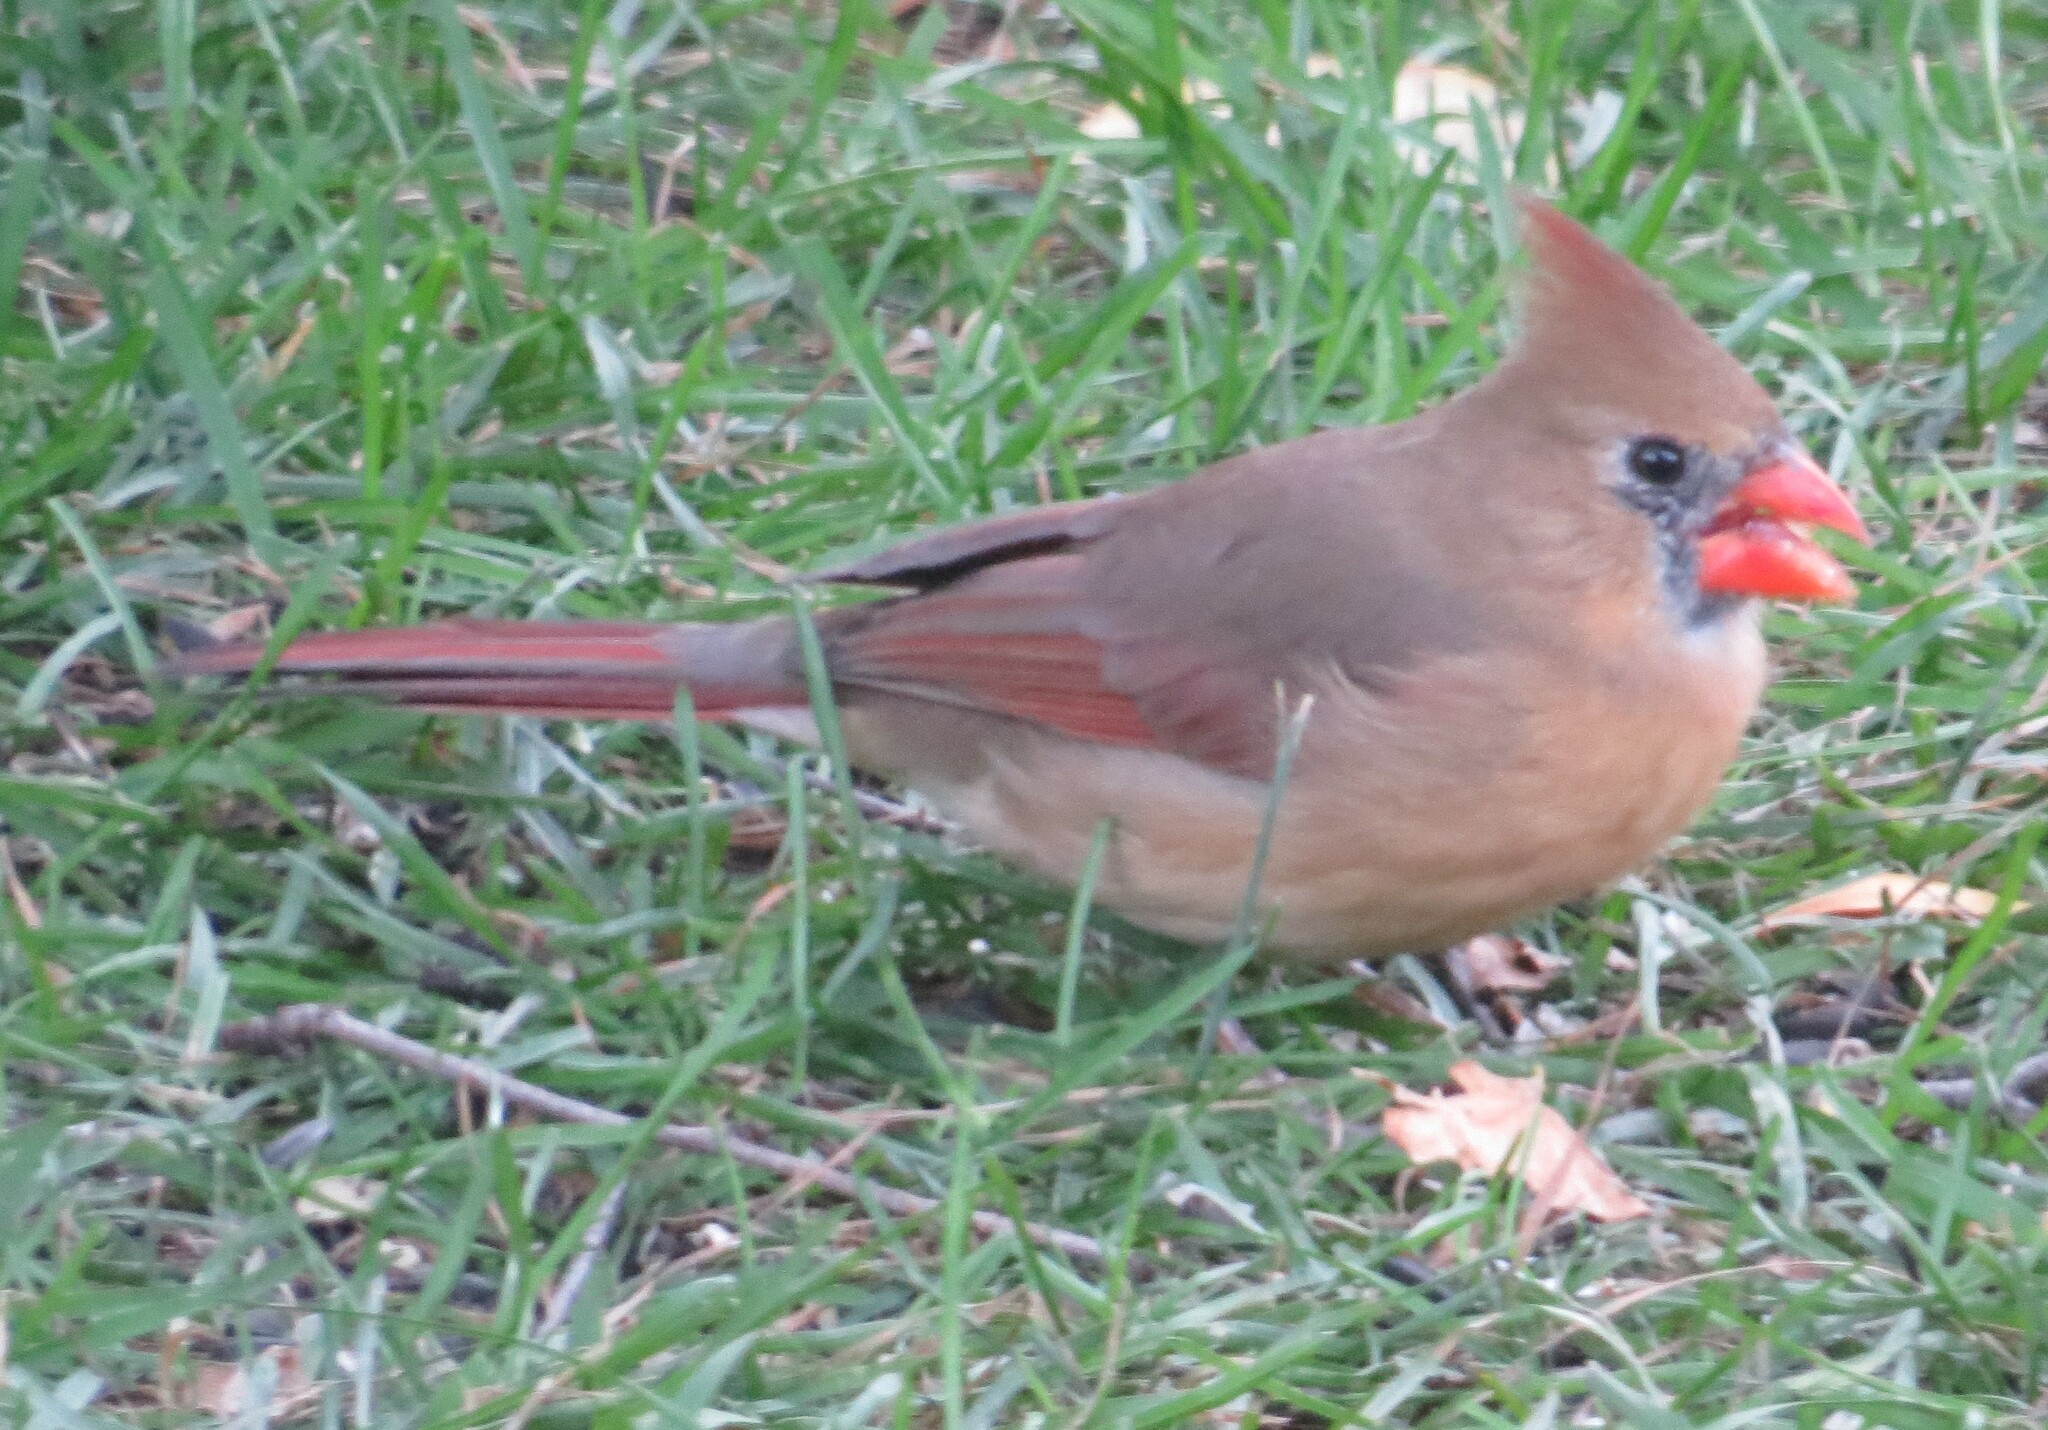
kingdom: Animalia
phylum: Chordata
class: Aves
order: Passeriformes
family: Cardinalidae
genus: Cardinalis
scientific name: Cardinalis cardinalis
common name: Northern cardinal
